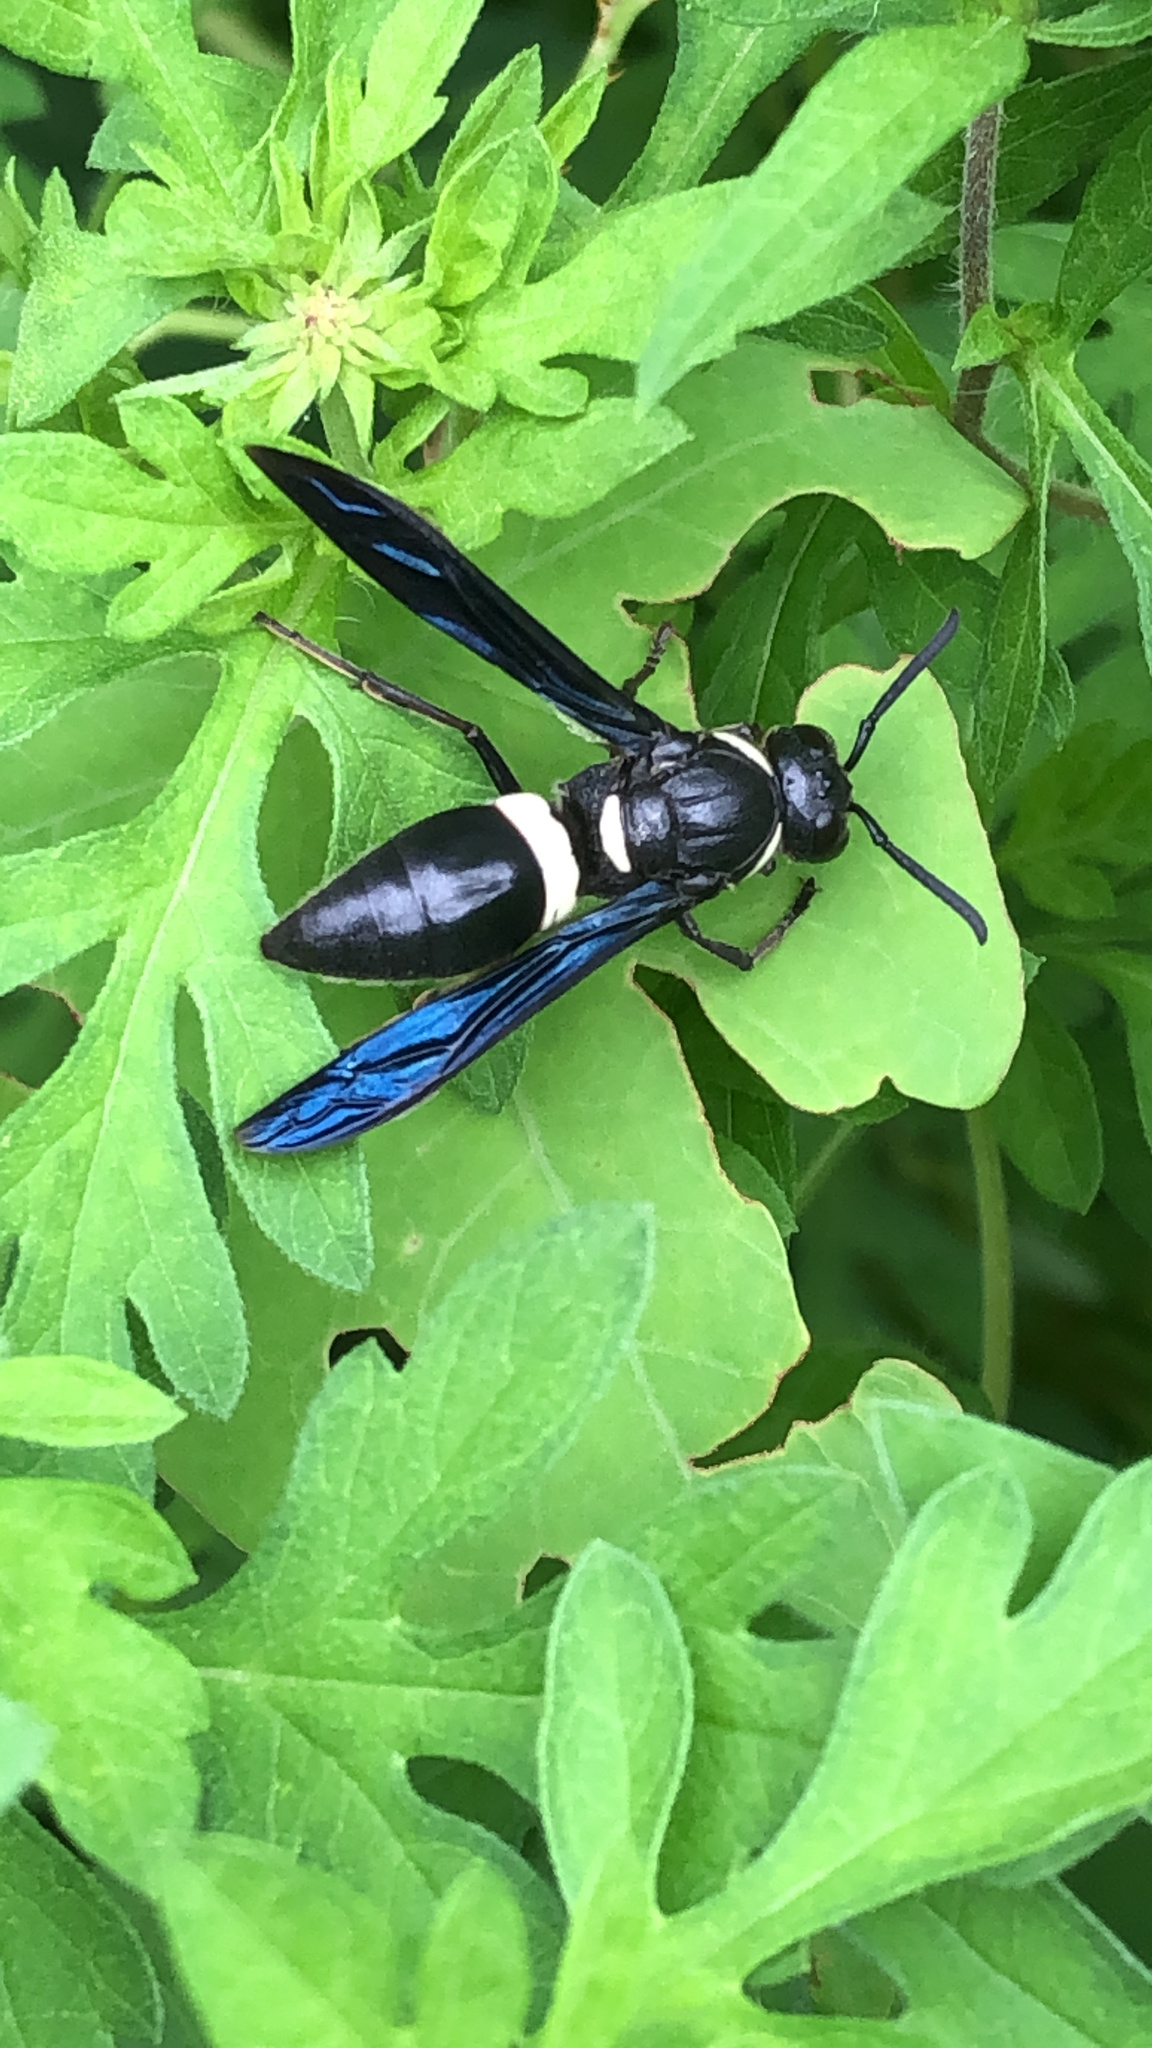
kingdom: Animalia
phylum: Arthropoda
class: Insecta
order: Hymenoptera
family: Eumenidae
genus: Monobia
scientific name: Monobia quadridens
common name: Four-toothed mason wasp
